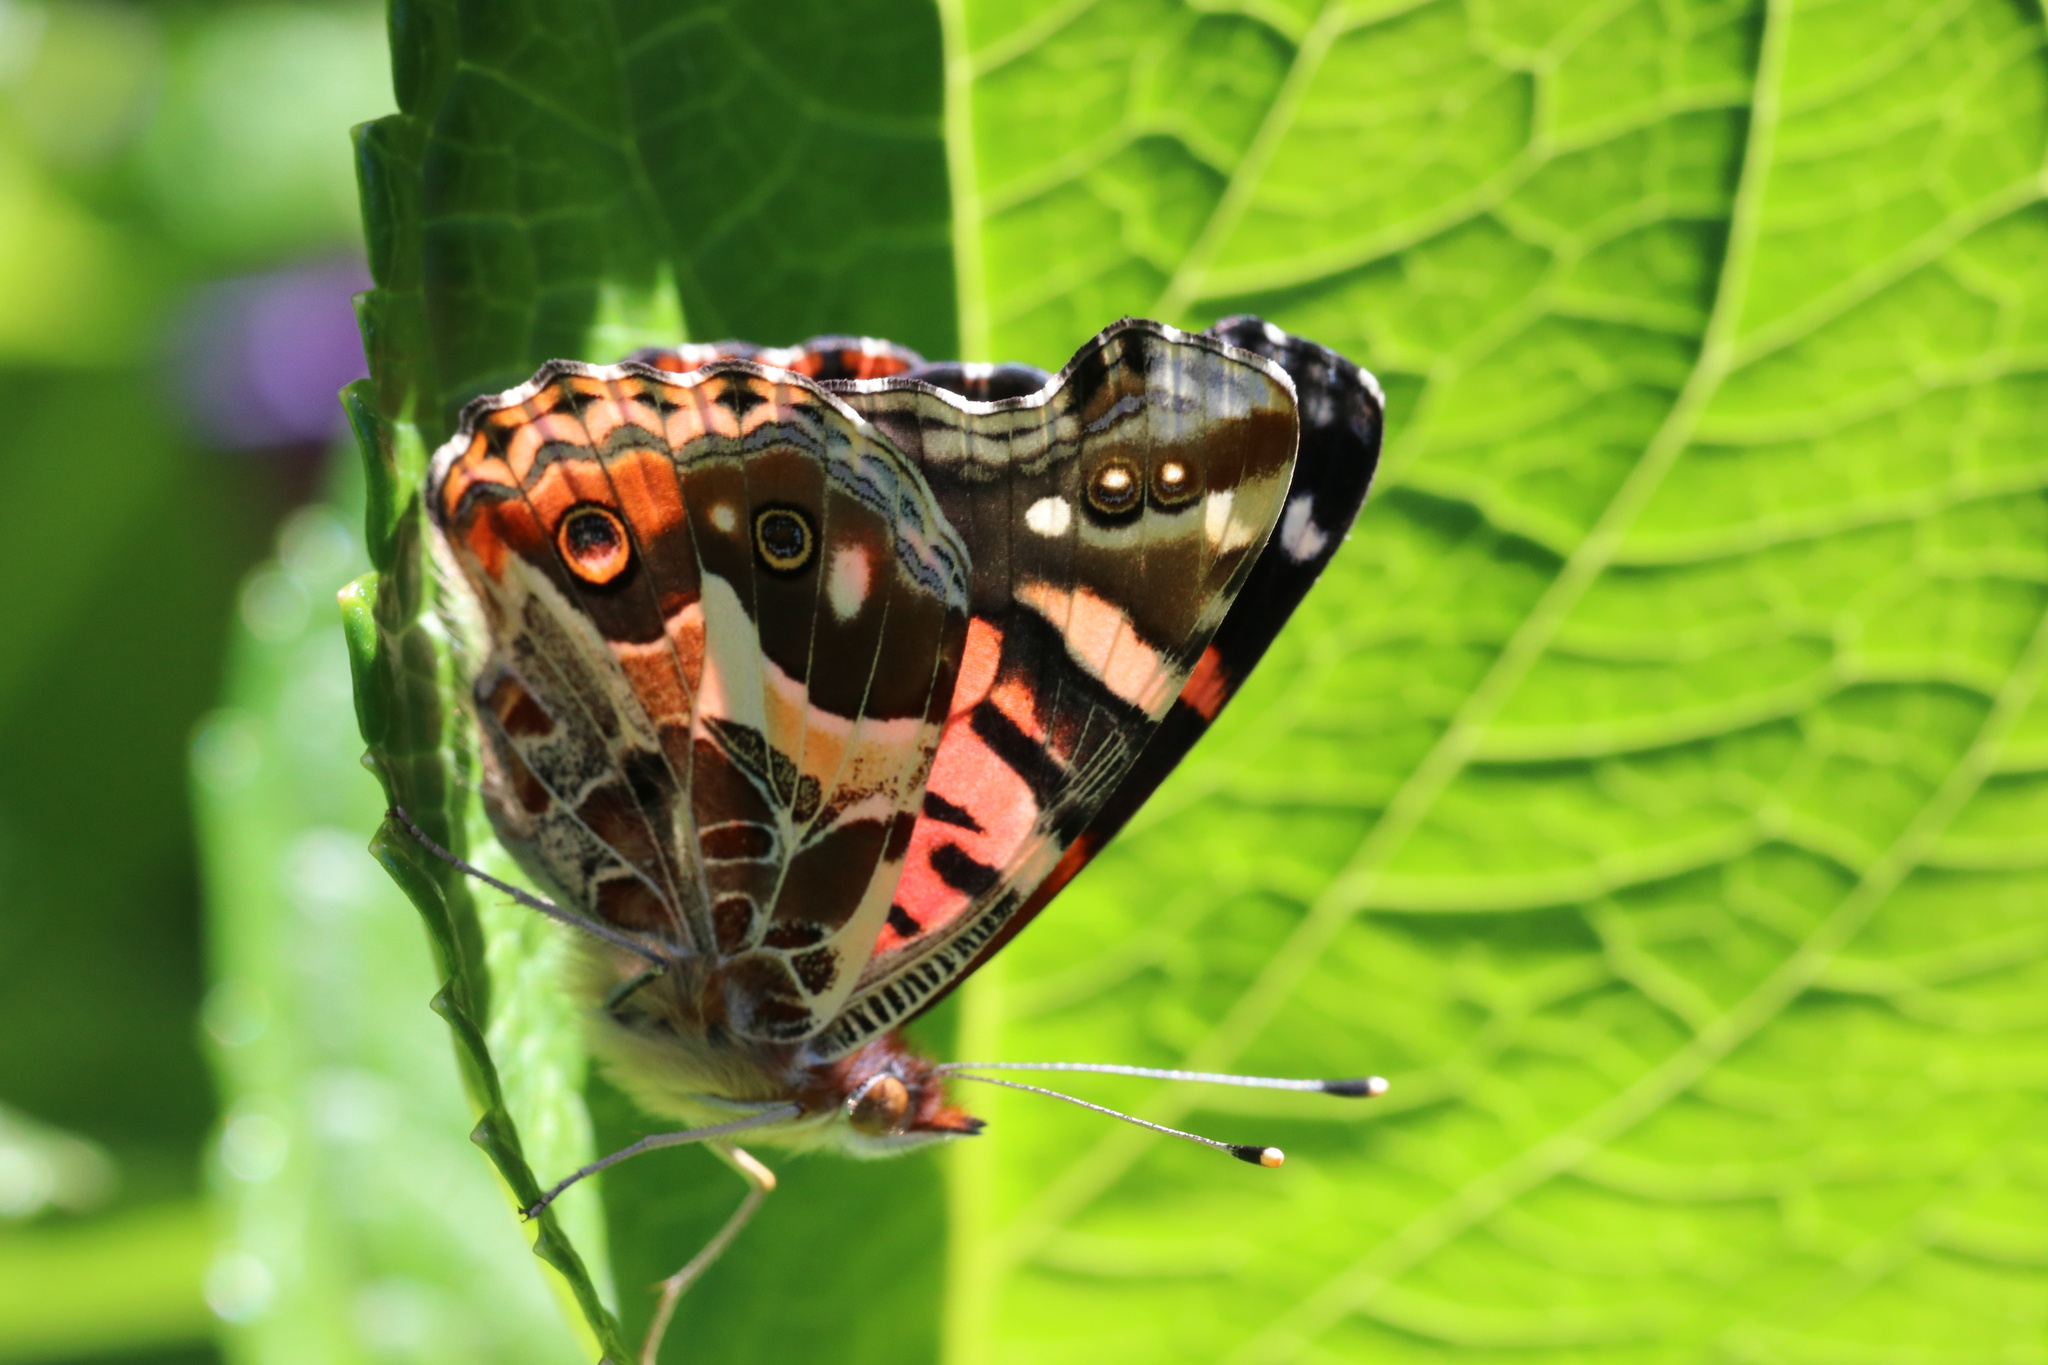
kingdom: Animalia
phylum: Arthropoda
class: Insecta
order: Lepidoptera
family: Nymphalidae
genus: Vanessa
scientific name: Vanessa terpsichore
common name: Chilean lady
